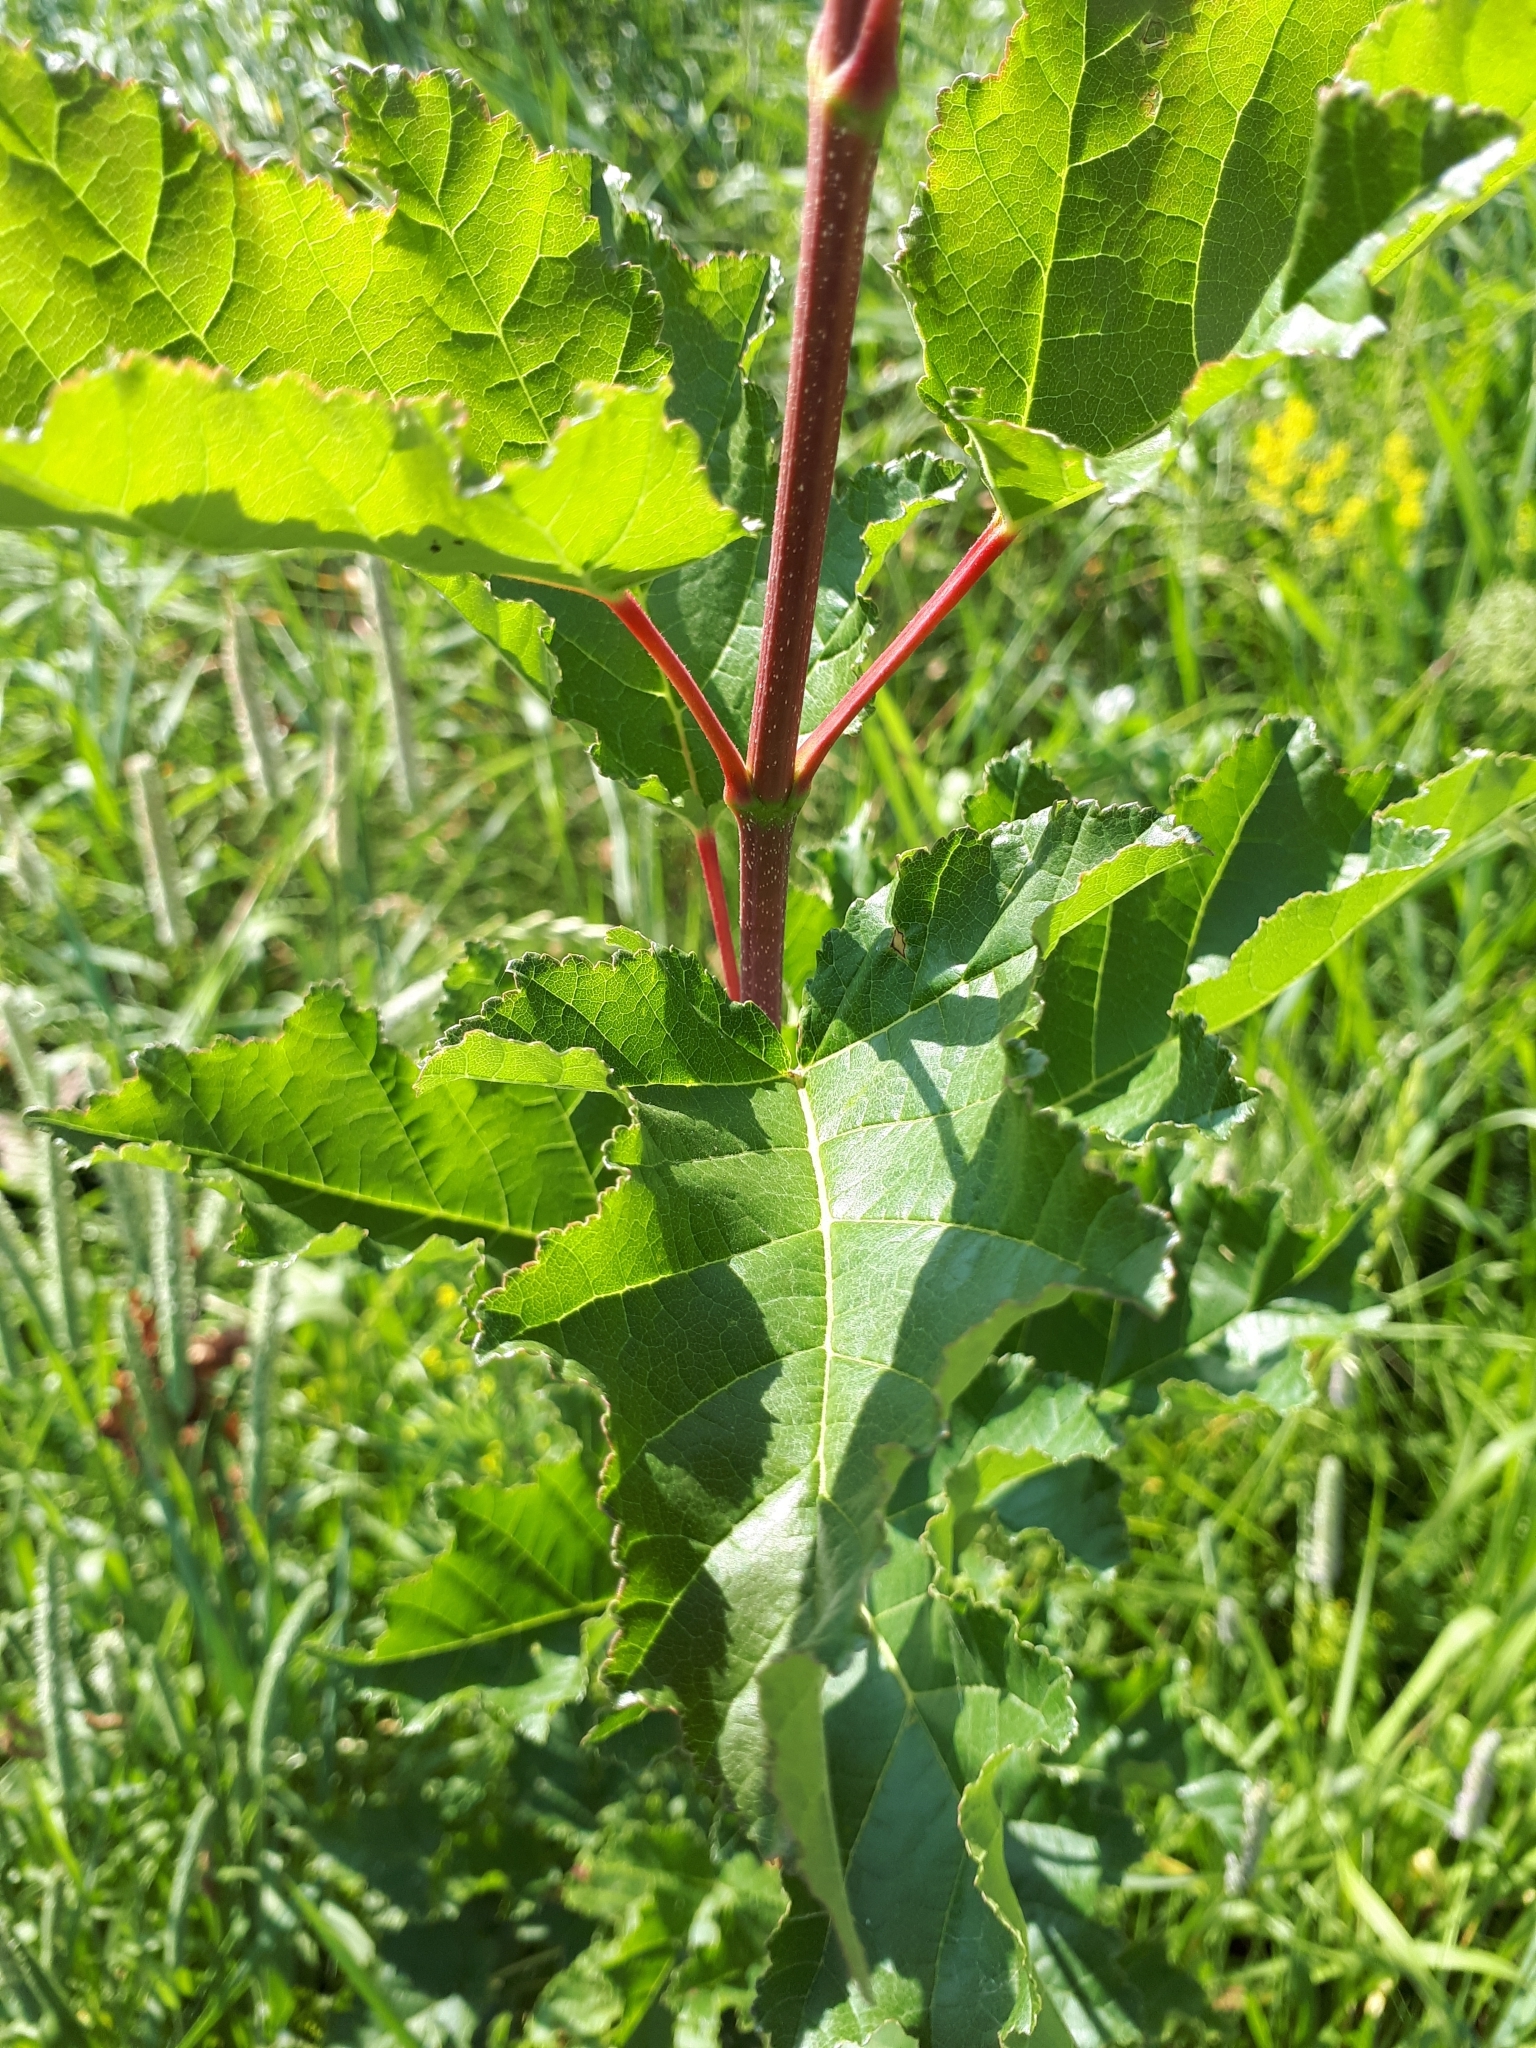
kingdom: Plantae
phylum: Tracheophyta
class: Magnoliopsida
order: Sapindales
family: Sapindaceae
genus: Acer
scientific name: Acer tataricum
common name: Tartar maple
